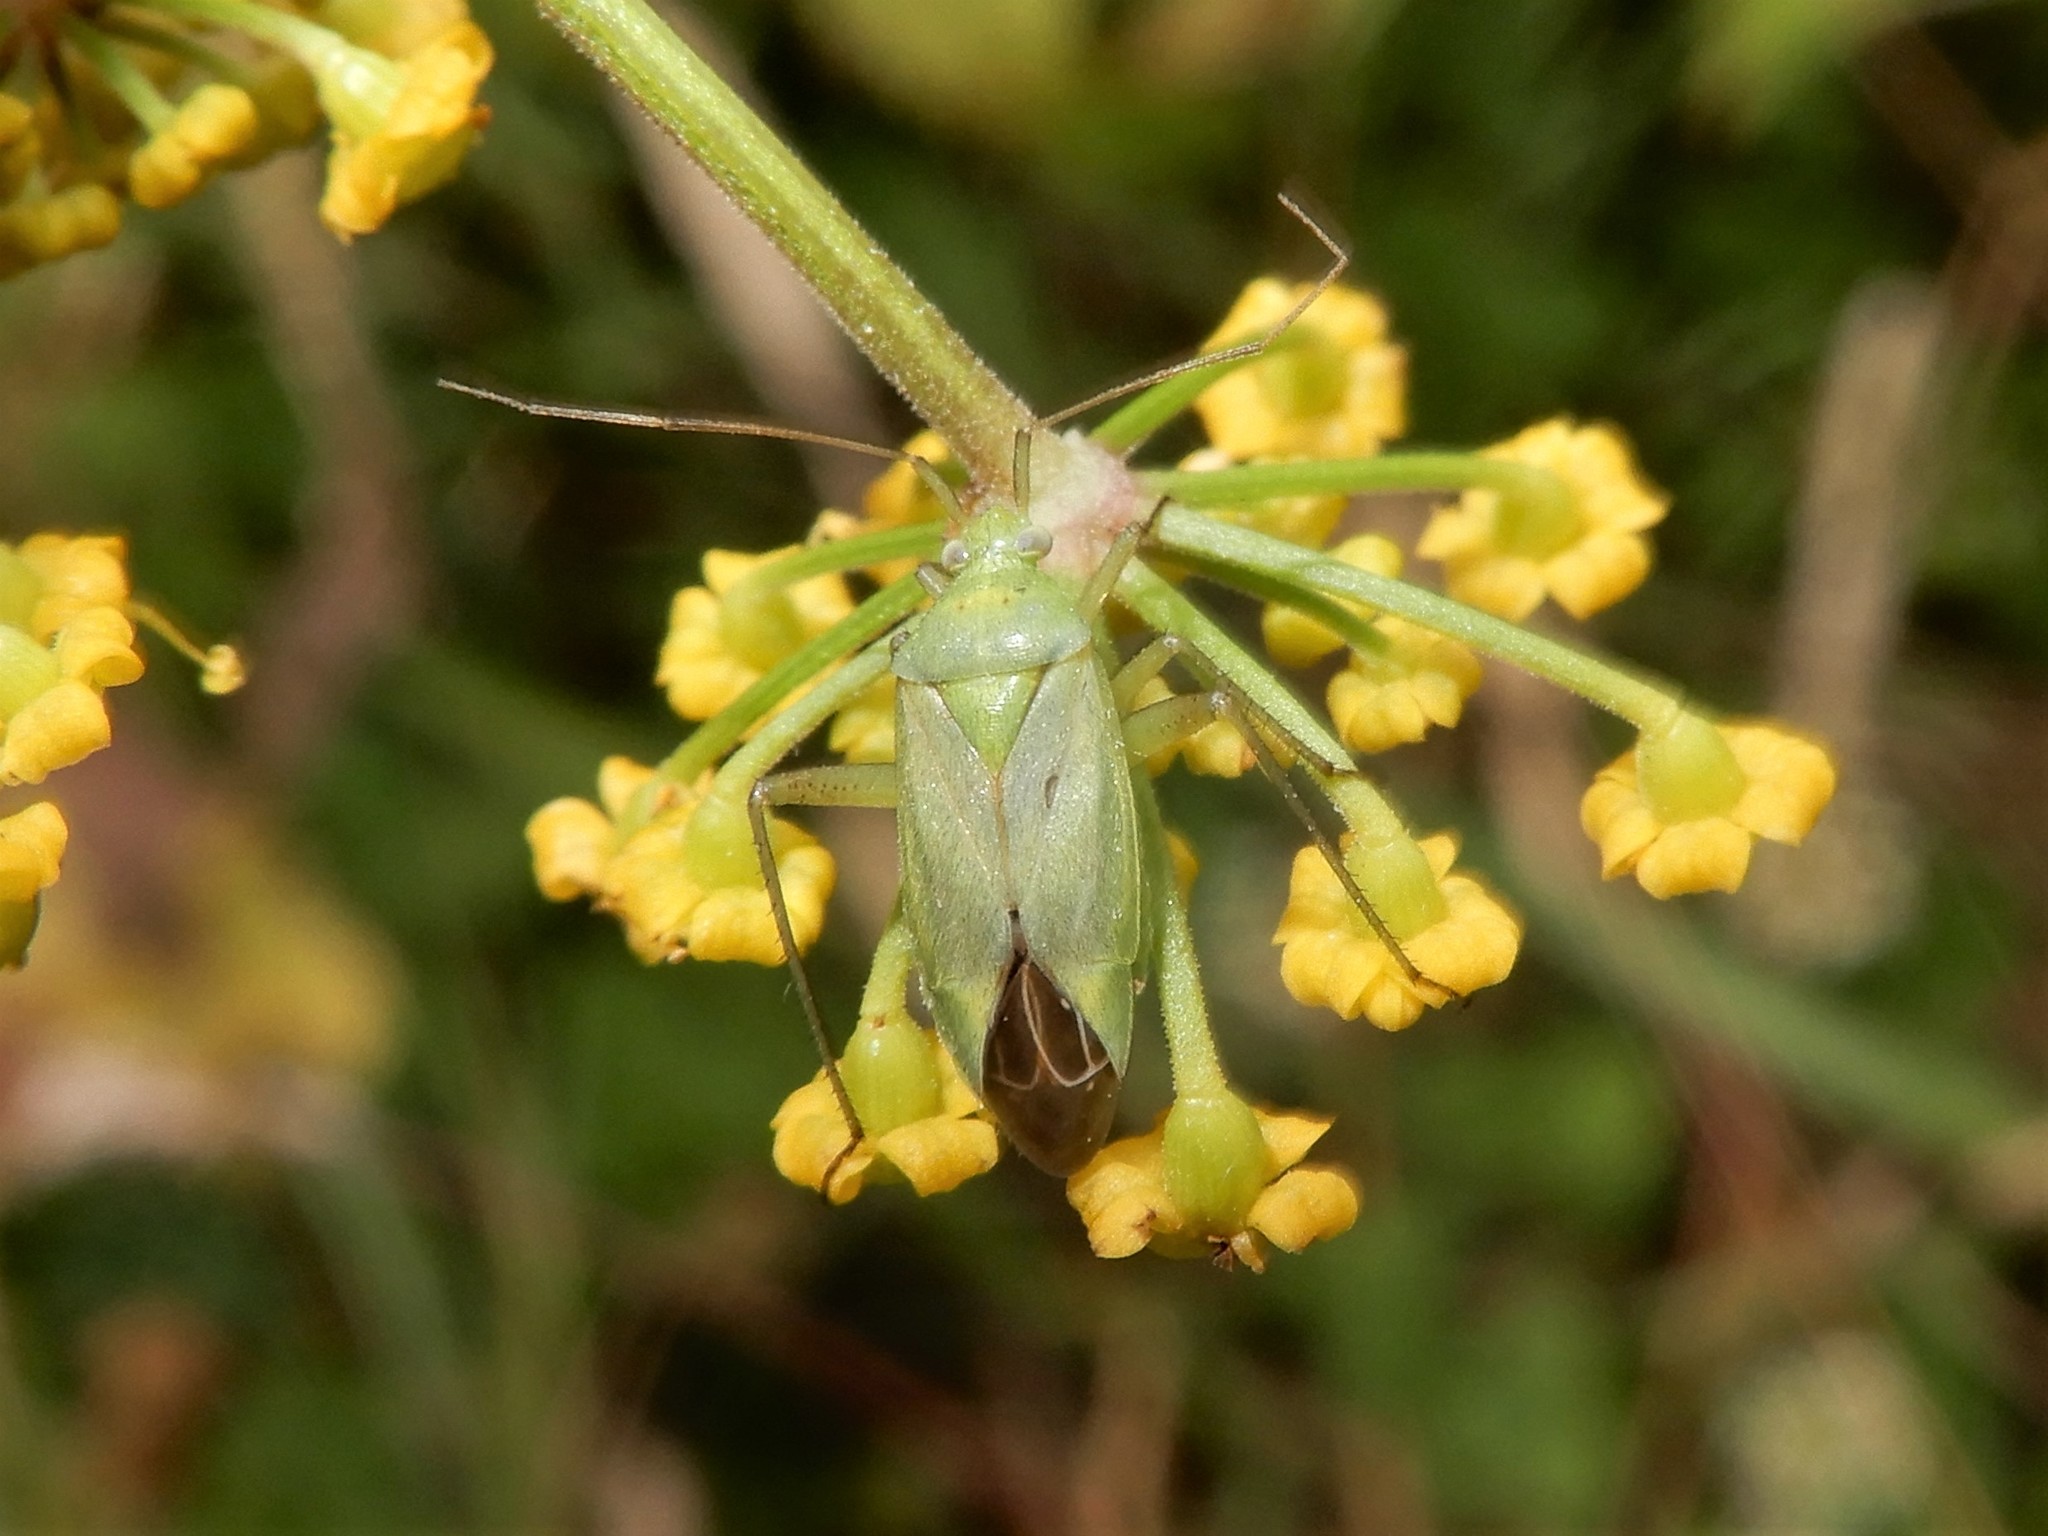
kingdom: Animalia
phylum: Arthropoda
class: Insecta
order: Hemiptera
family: Miridae
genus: Closterotomus
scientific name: Closterotomus norvegicus
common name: Plant bug
